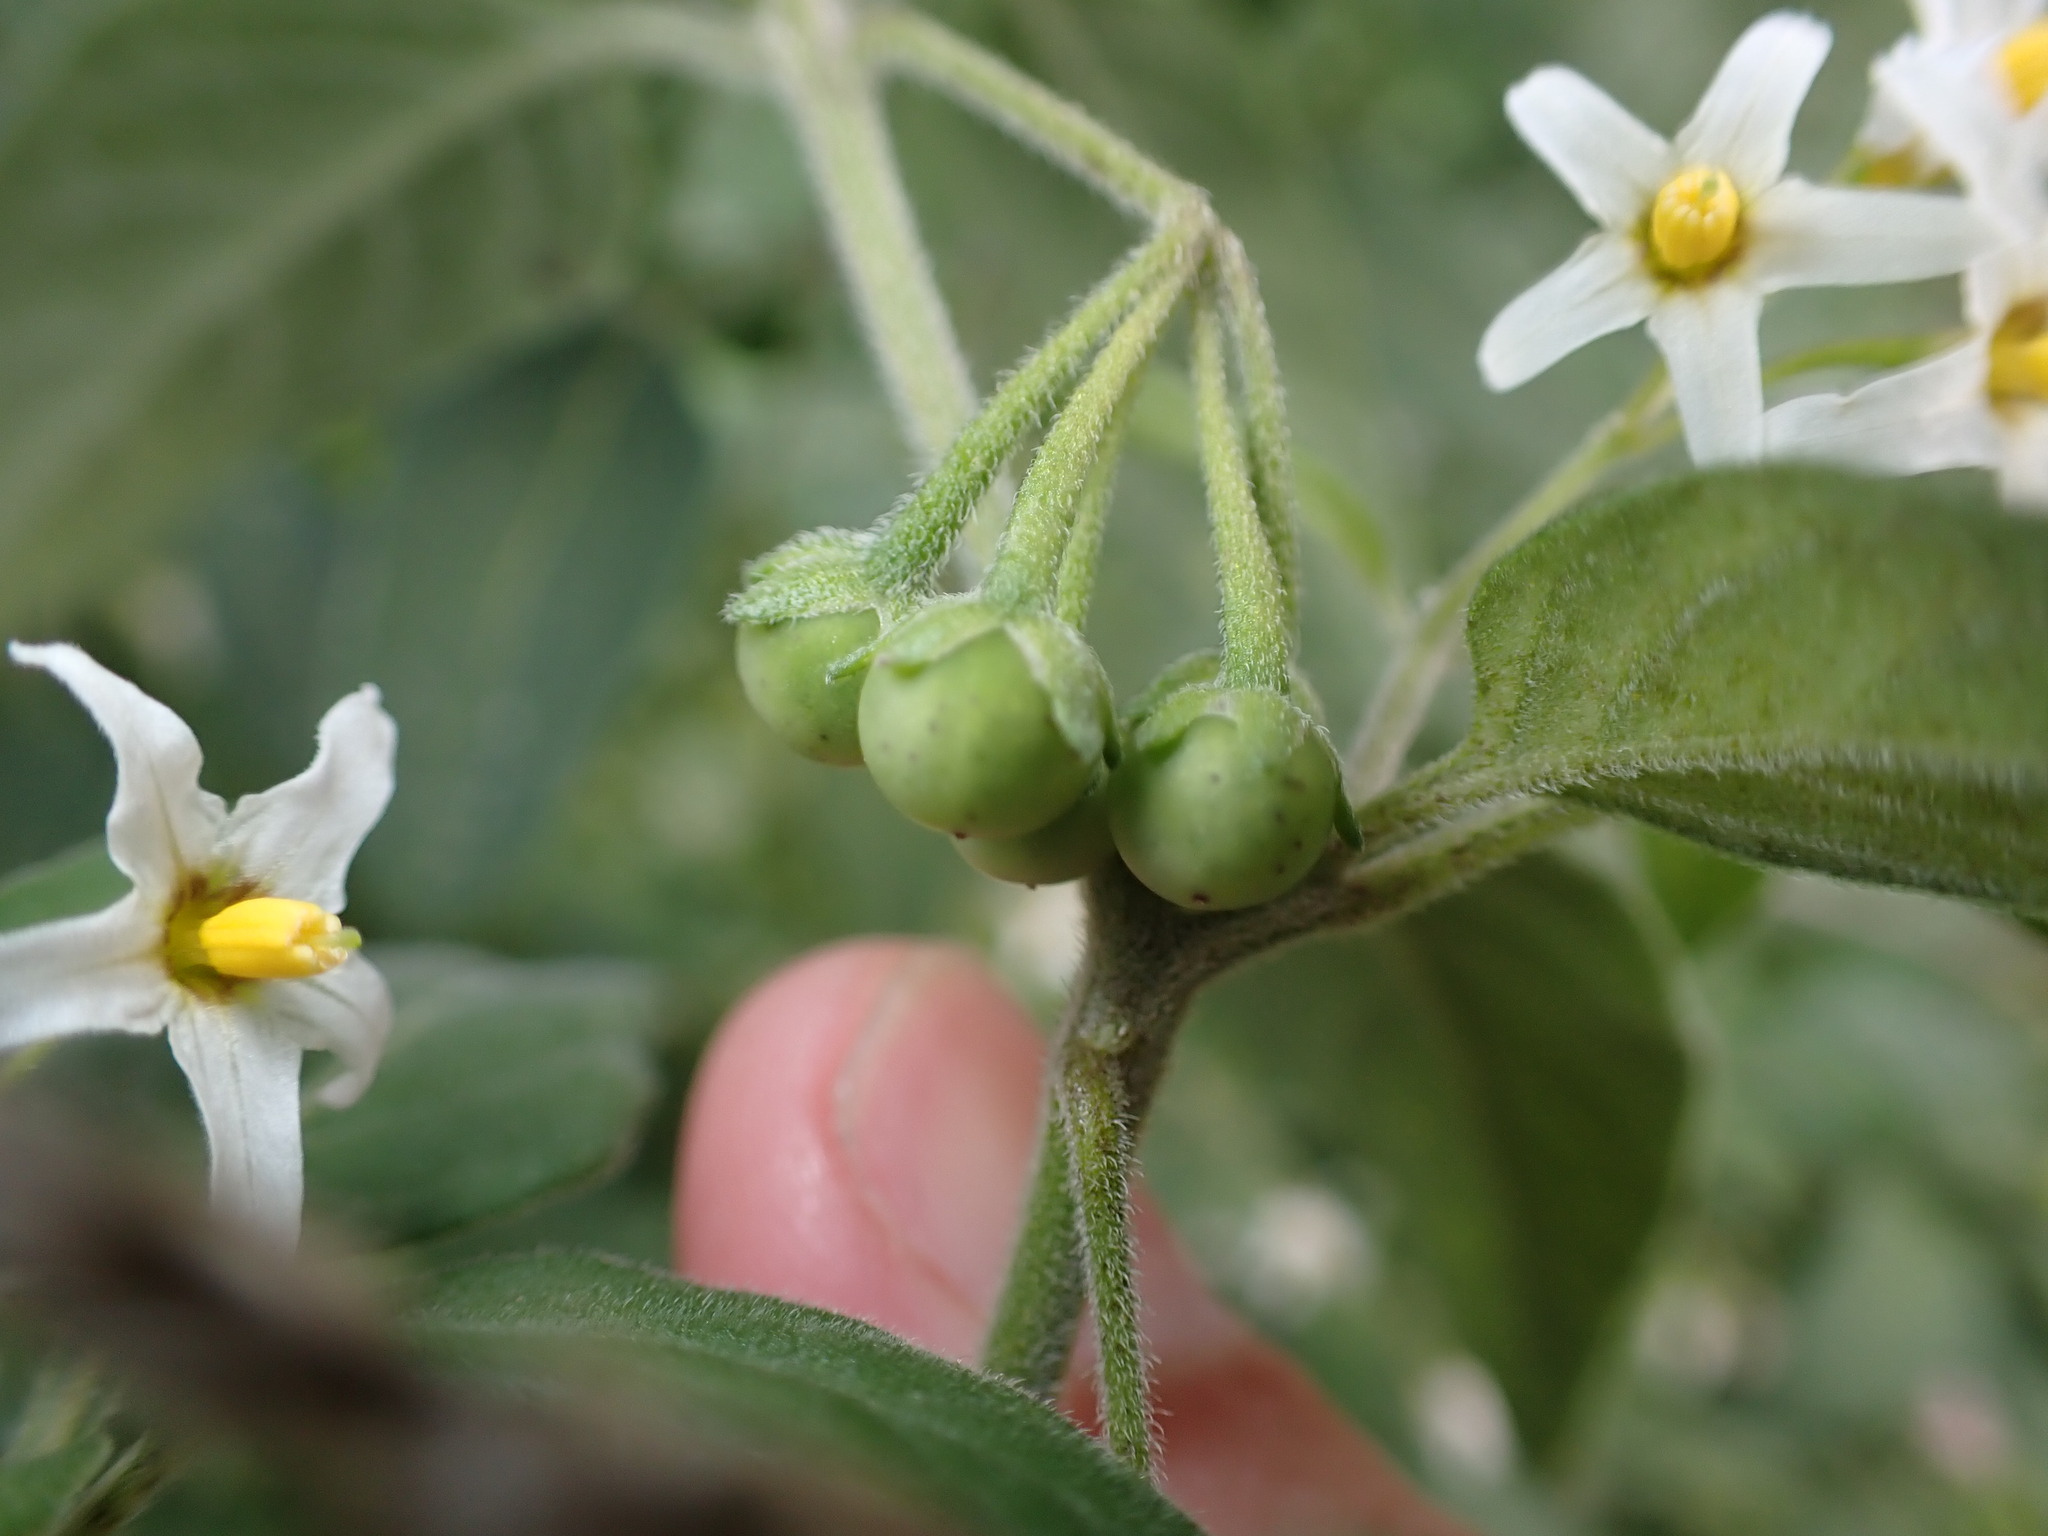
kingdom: Plantae
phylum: Tracheophyta
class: Magnoliopsida
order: Solanales
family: Solanaceae
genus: Solanum
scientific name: Solanum chenopodioides
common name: Tall nightshade
